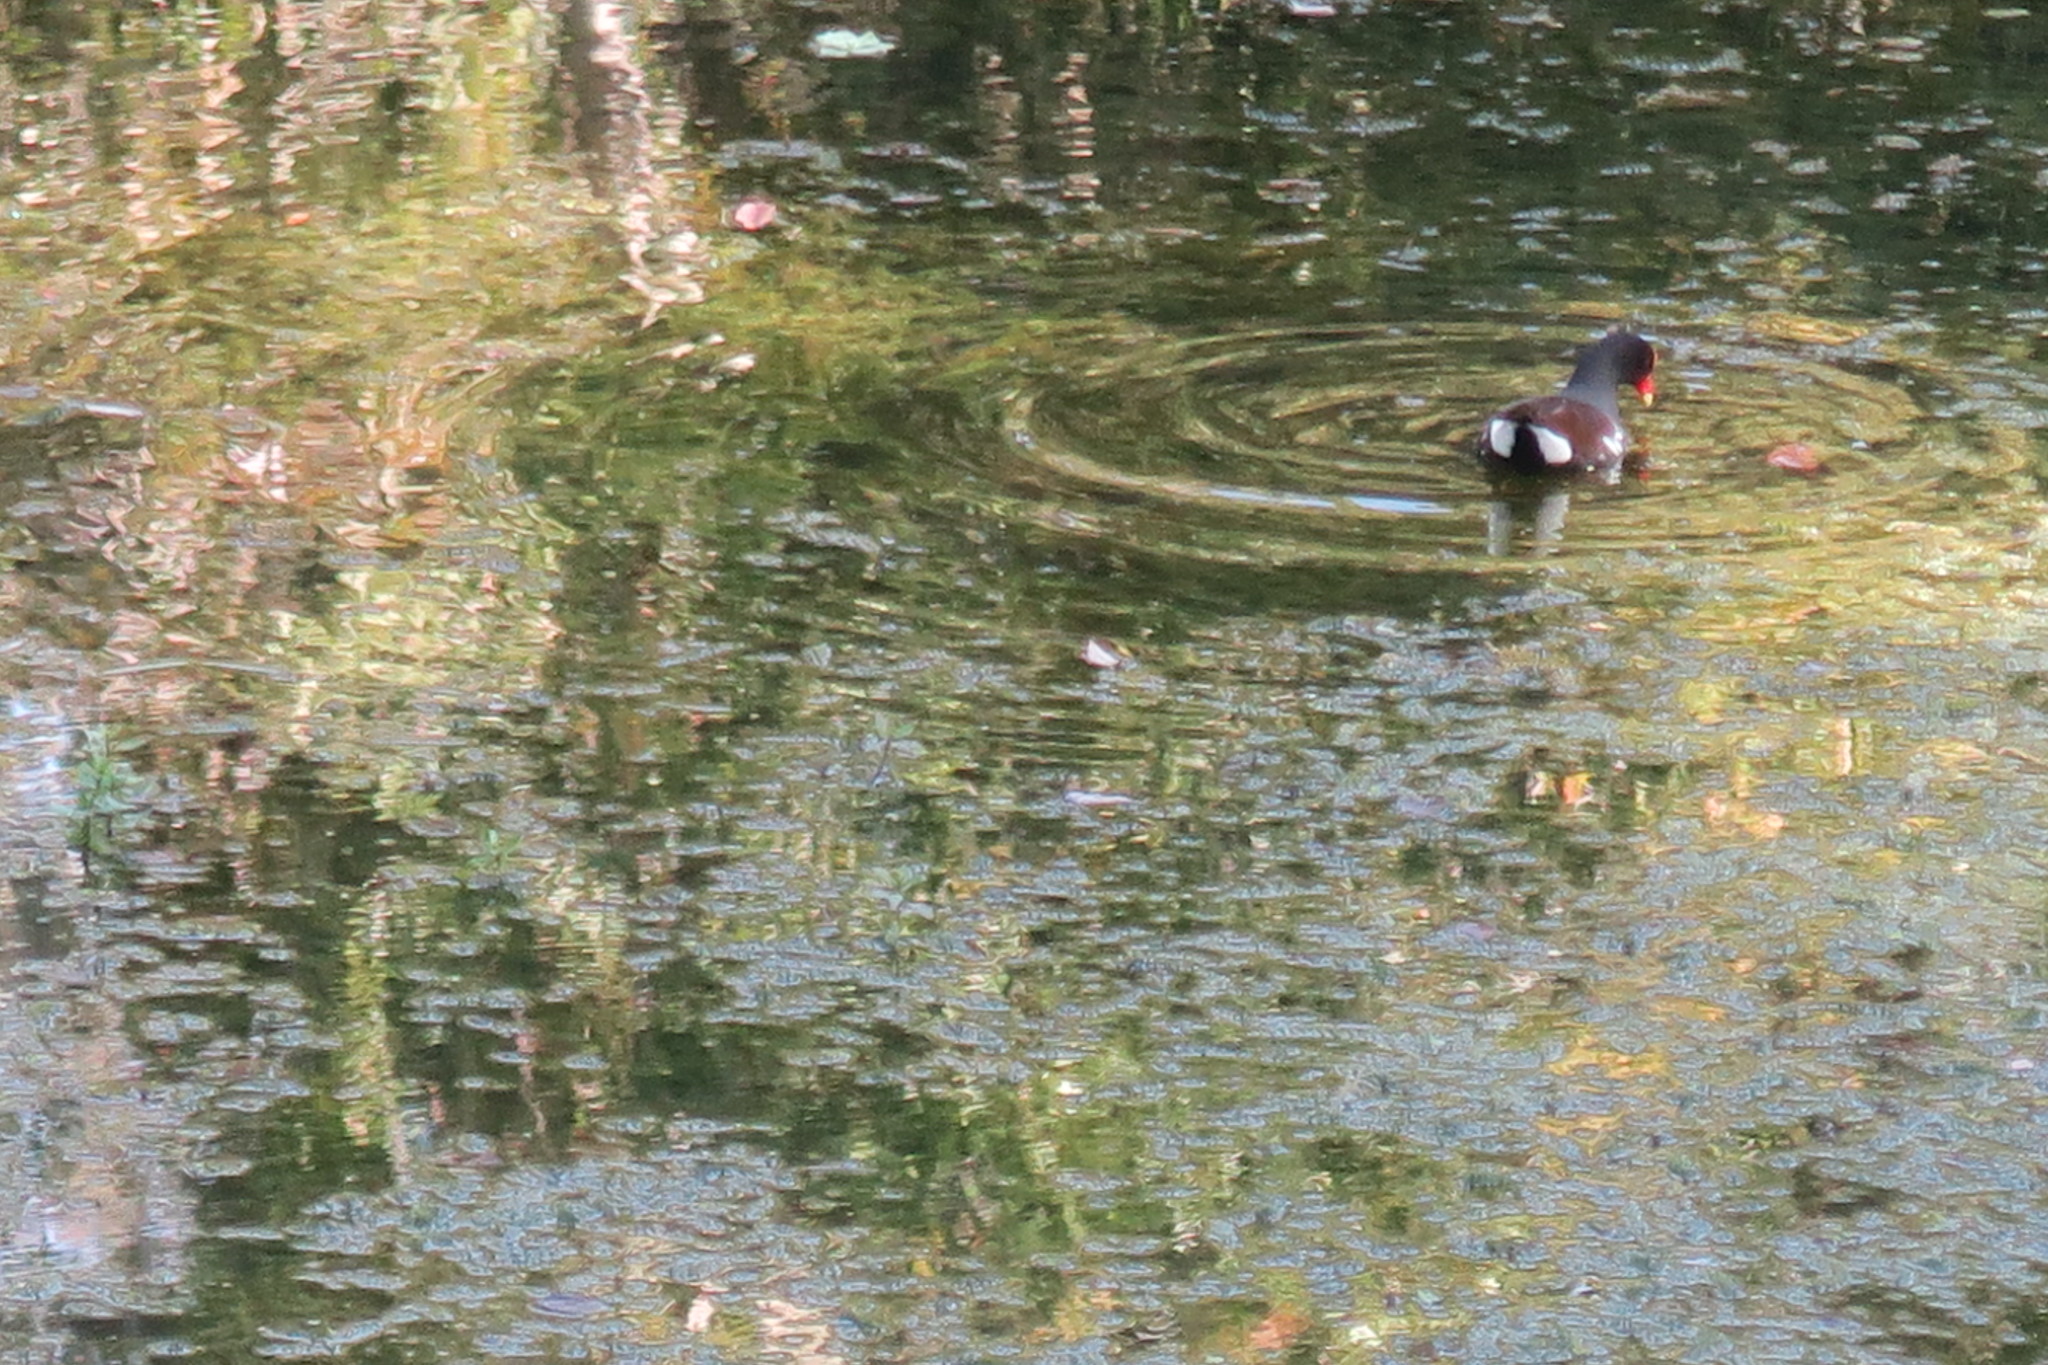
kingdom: Animalia
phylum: Chordata
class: Aves
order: Gruiformes
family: Rallidae
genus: Gallinula
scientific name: Gallinula chloropus
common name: Common moorhen
